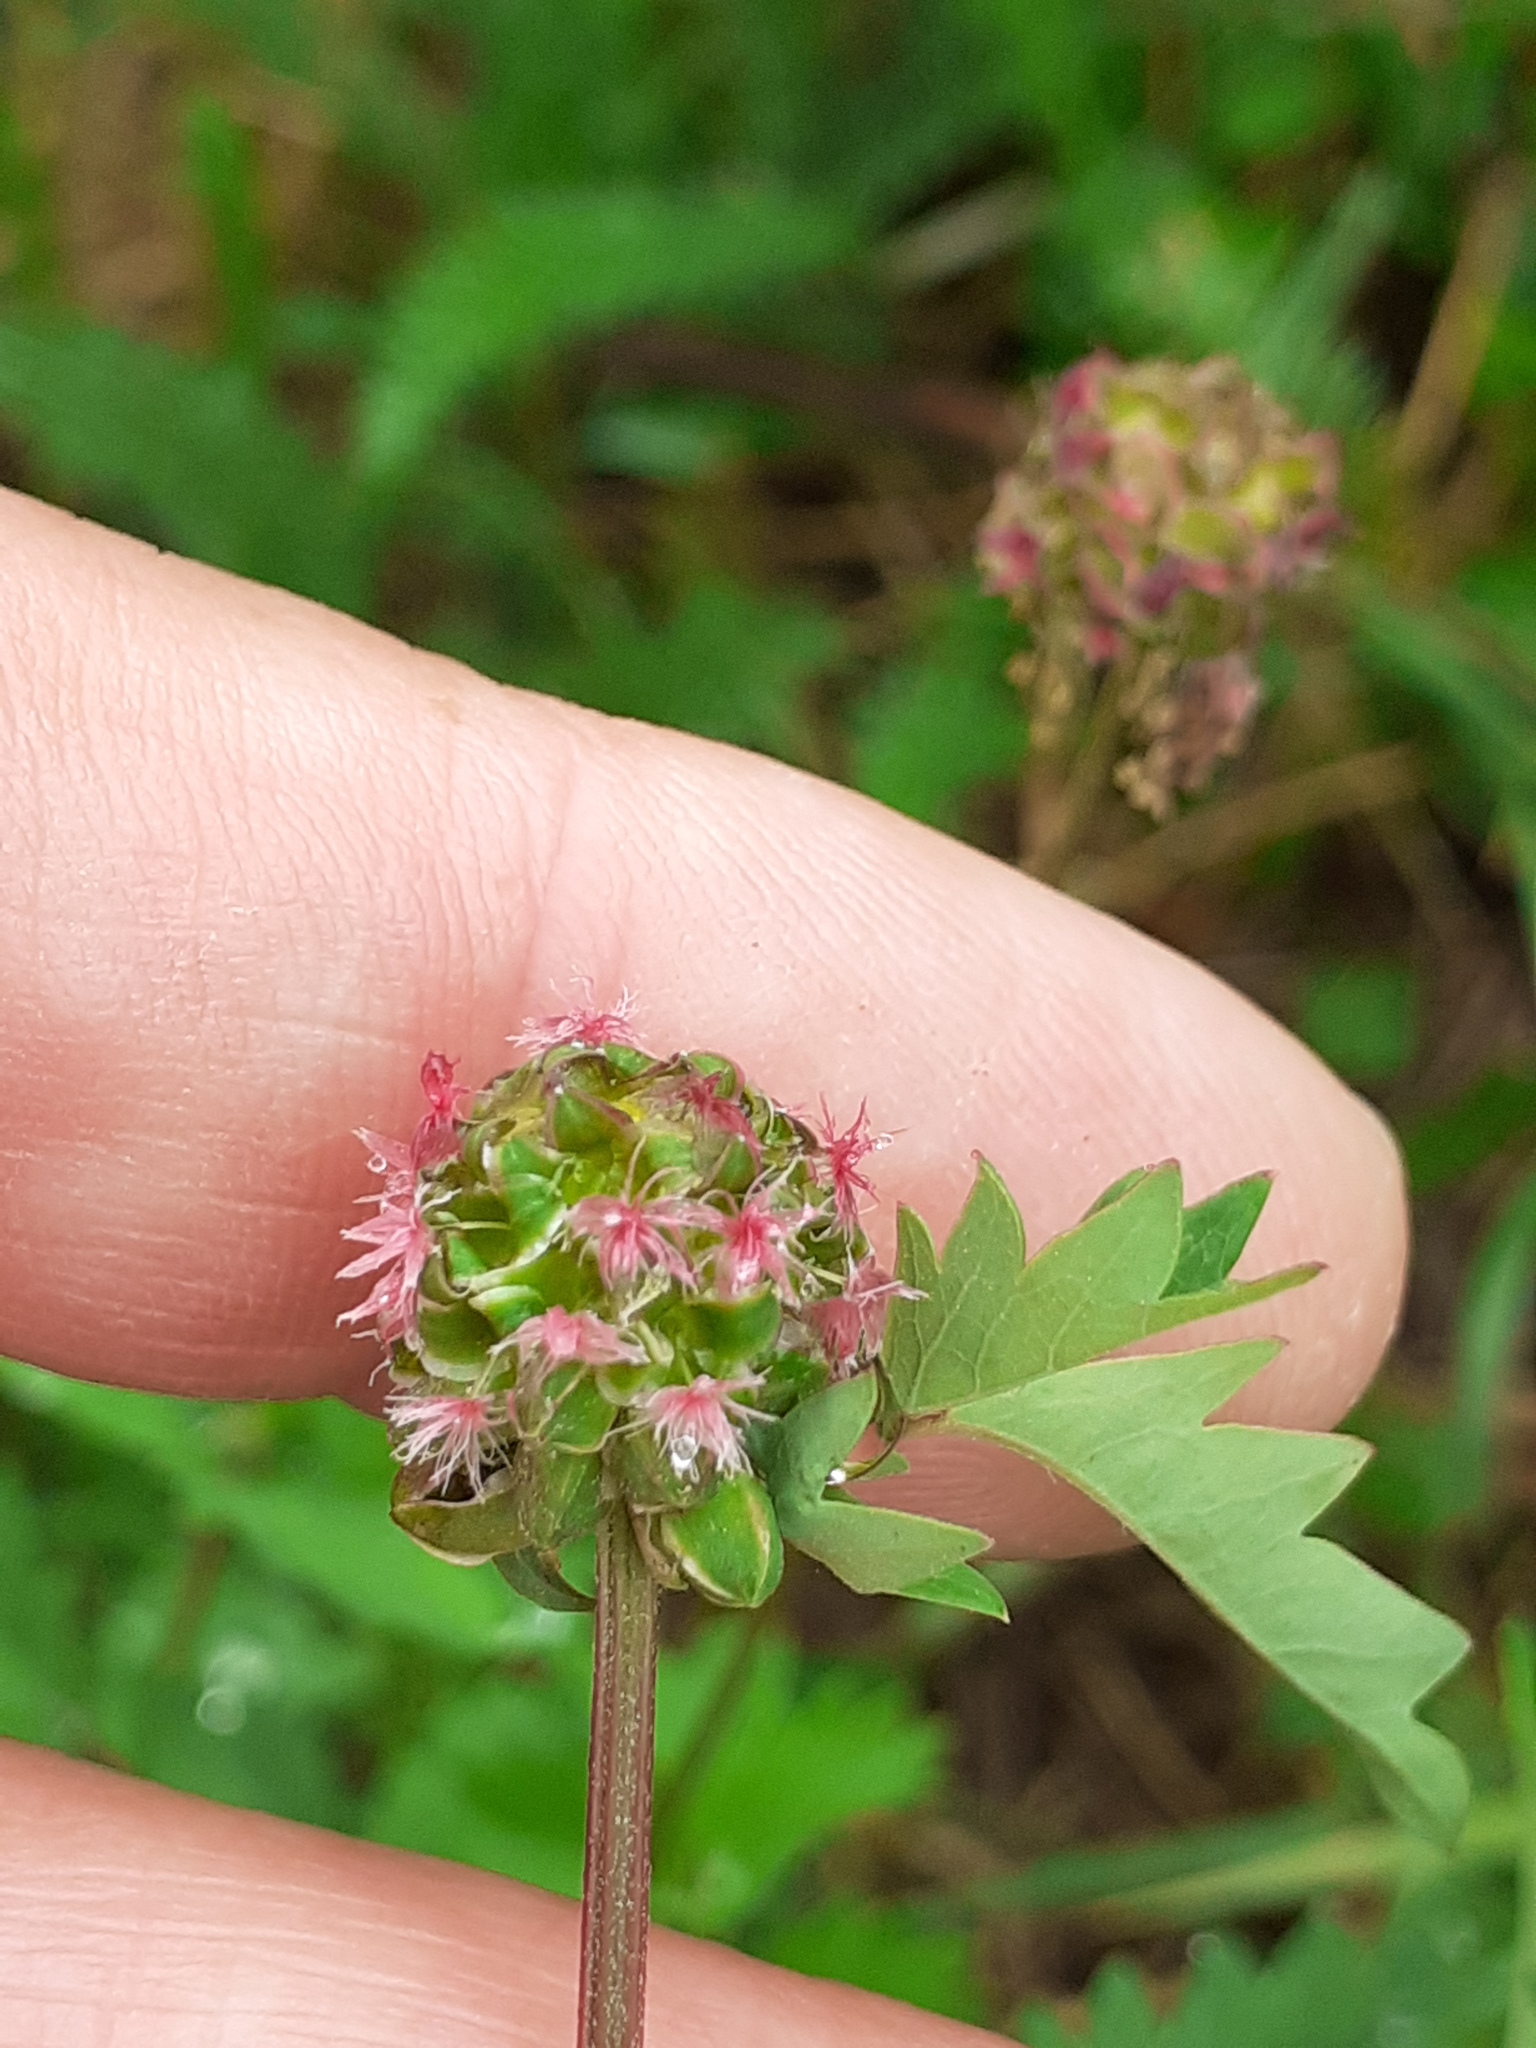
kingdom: Plantae
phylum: Tracheophyta
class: Magnoliopsida
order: Rosales
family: Rosaceae
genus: Poterium
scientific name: Poterium sanguisorba
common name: Salad burnet
